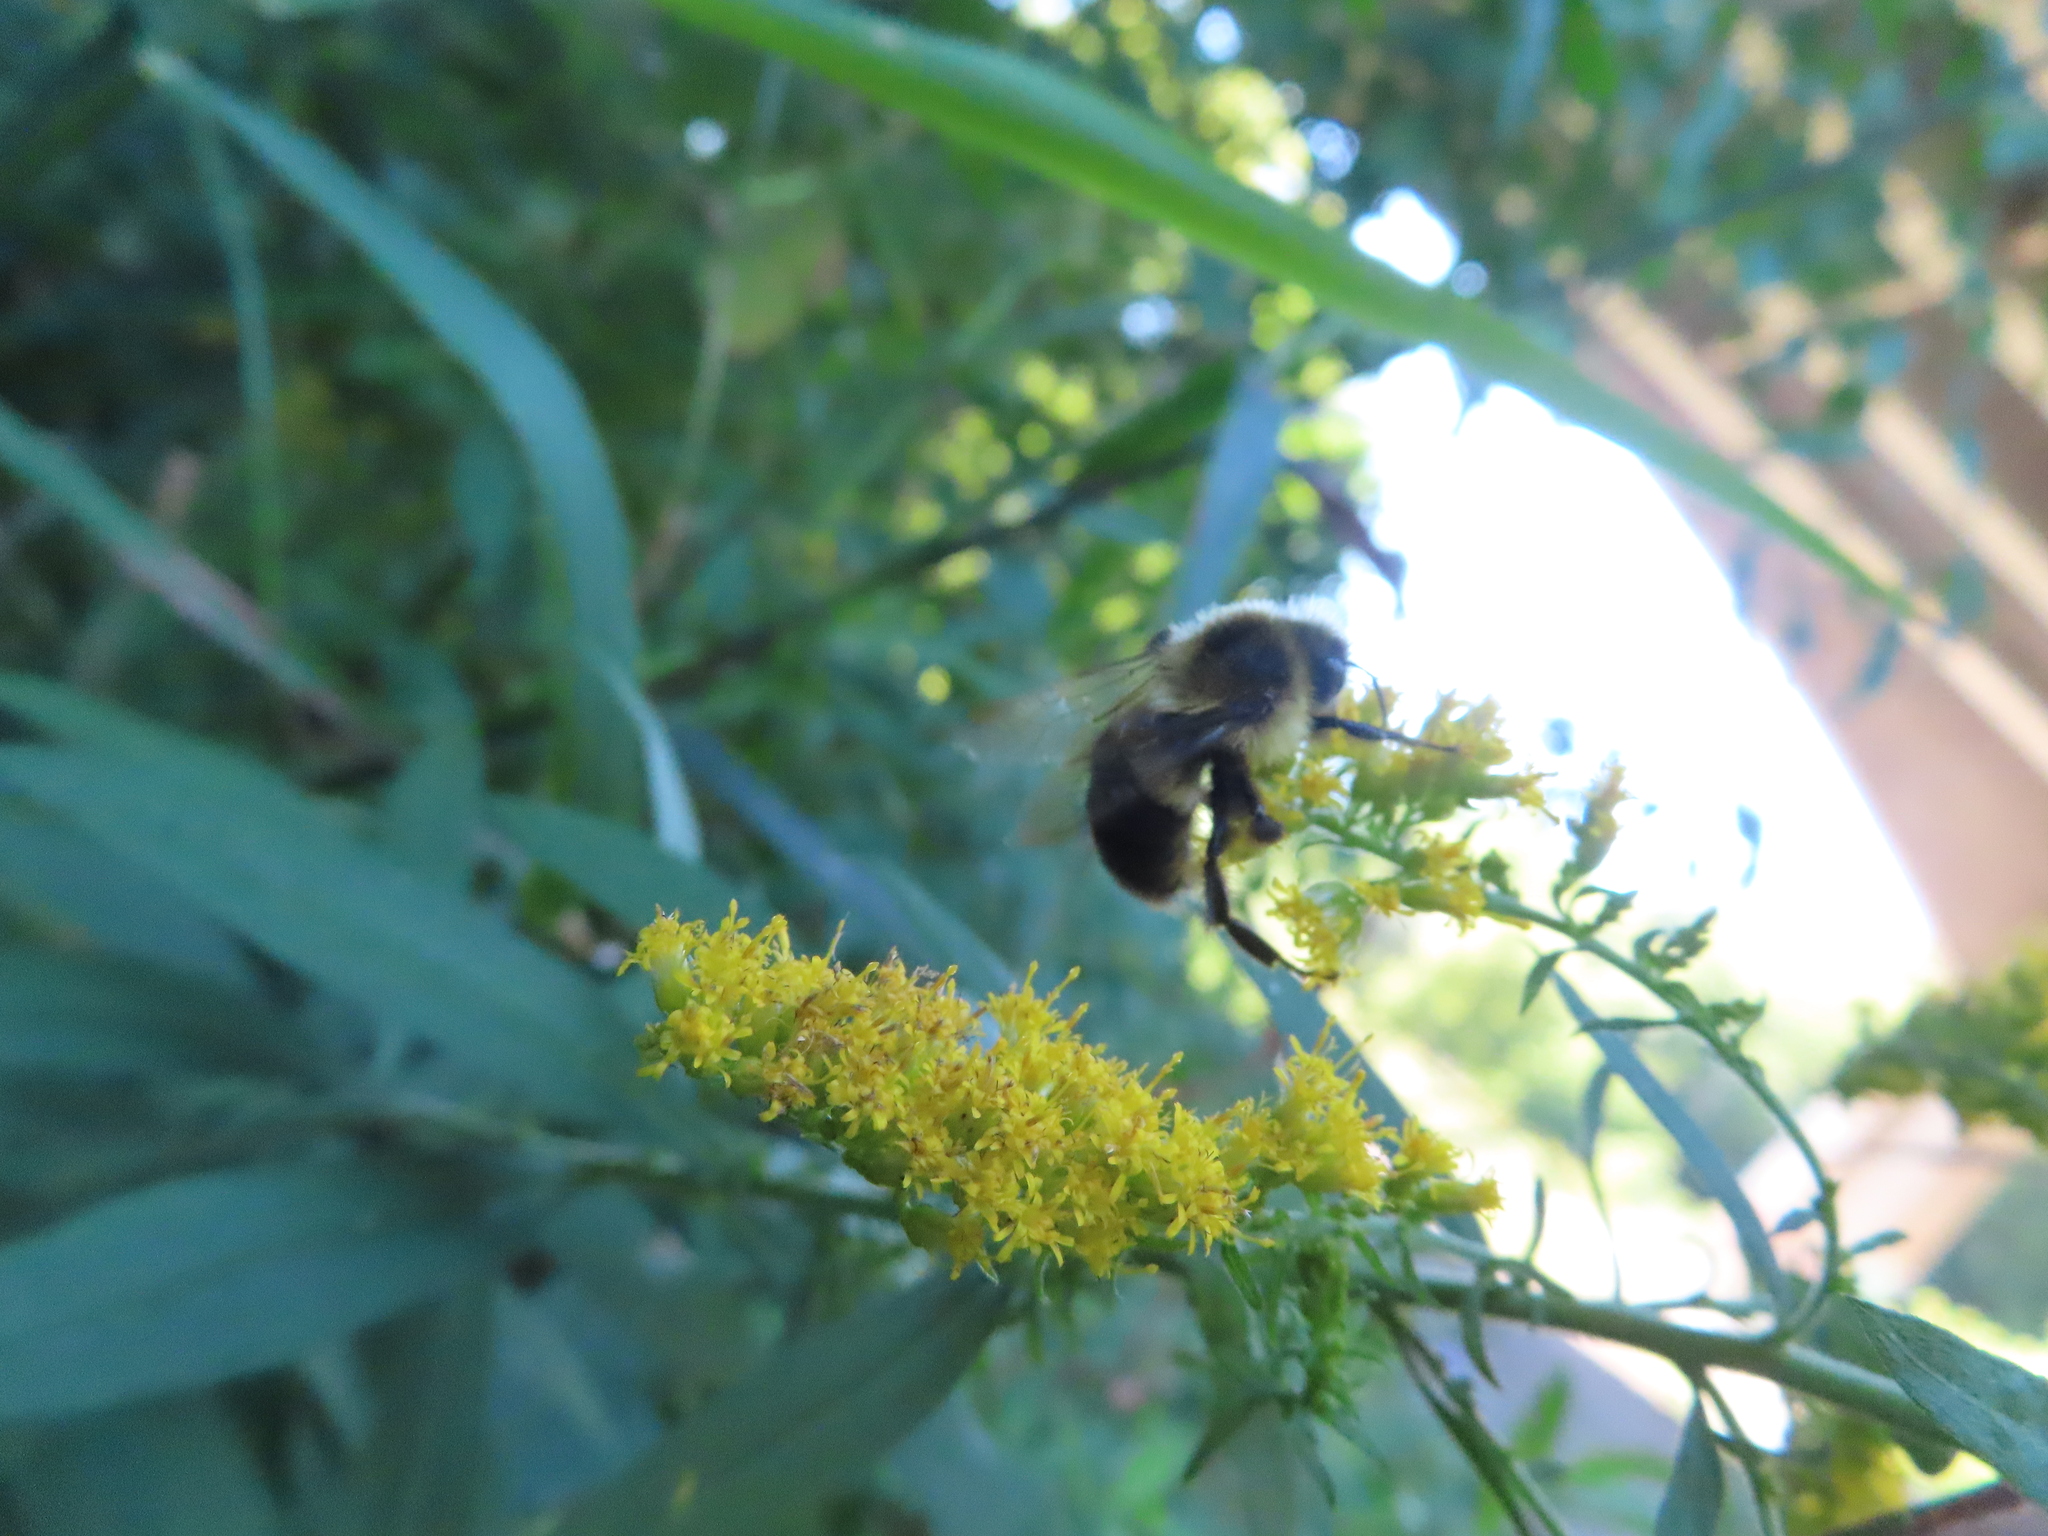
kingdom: Animalia
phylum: Arthropoda
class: Insecta
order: Hymenoptera
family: Apidae
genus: Bombus
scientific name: Bombus impatiens
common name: Common eastern bumble bee
